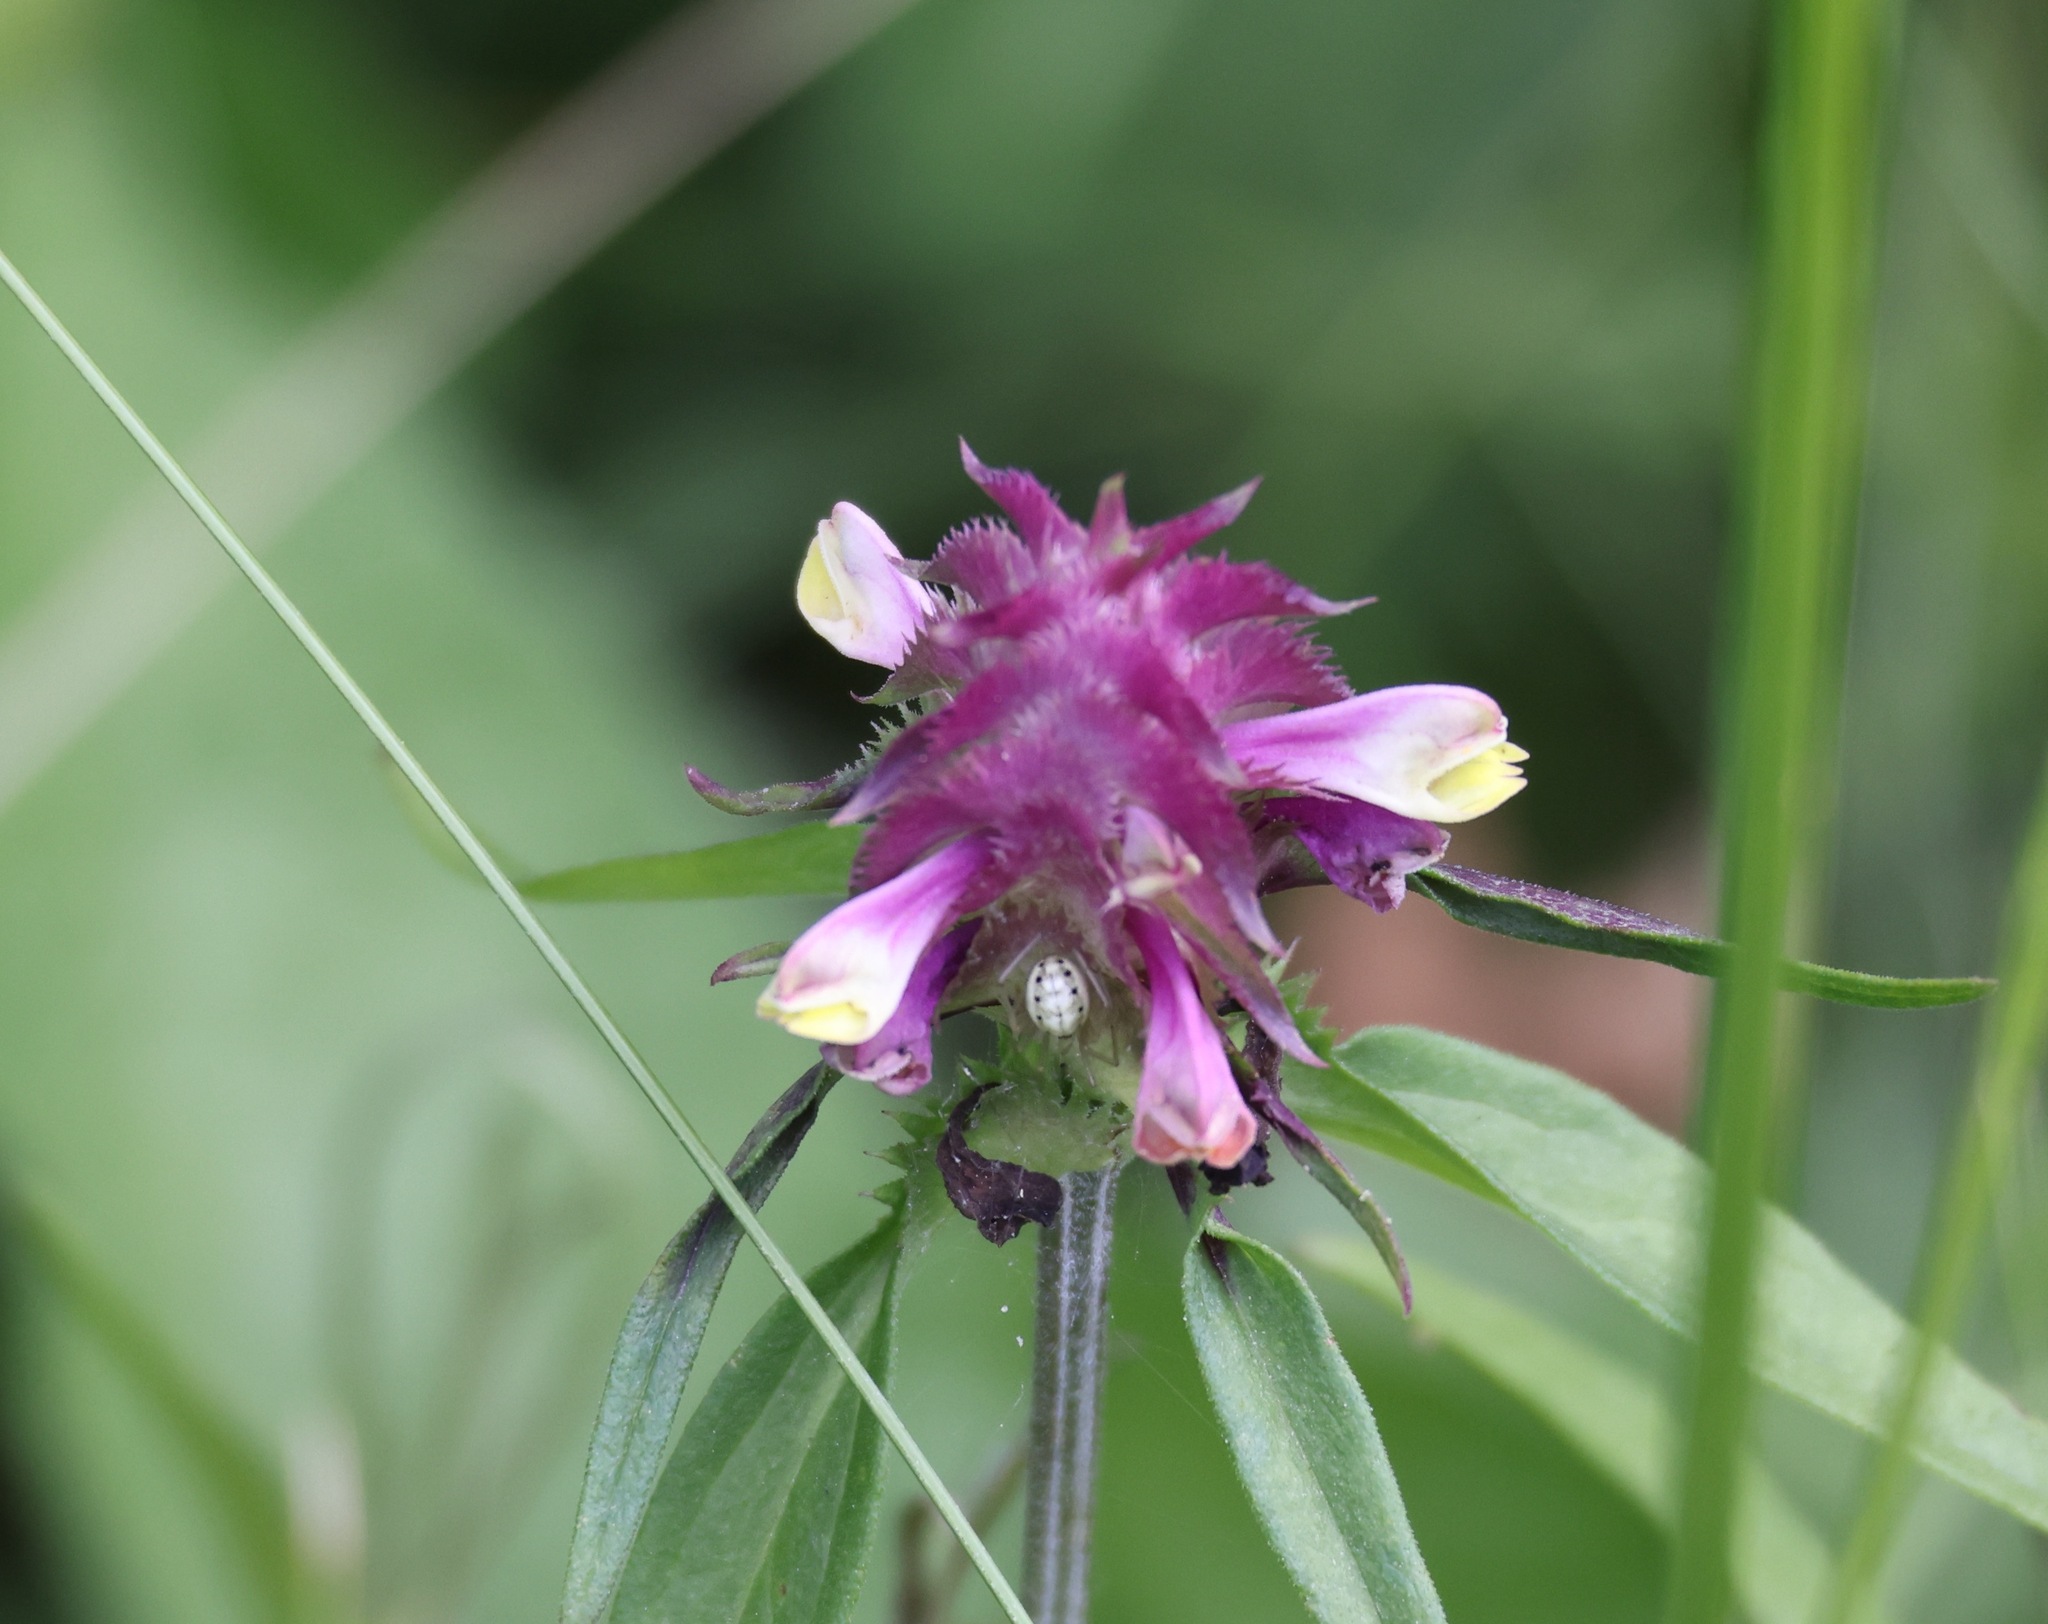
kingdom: Plantae
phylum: Tracheophyta
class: Magnoliopsida
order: Lamiales
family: Orobanchaceae
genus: Melampyrum
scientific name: Melampyrum cristatum
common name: Crested cow-wheat
